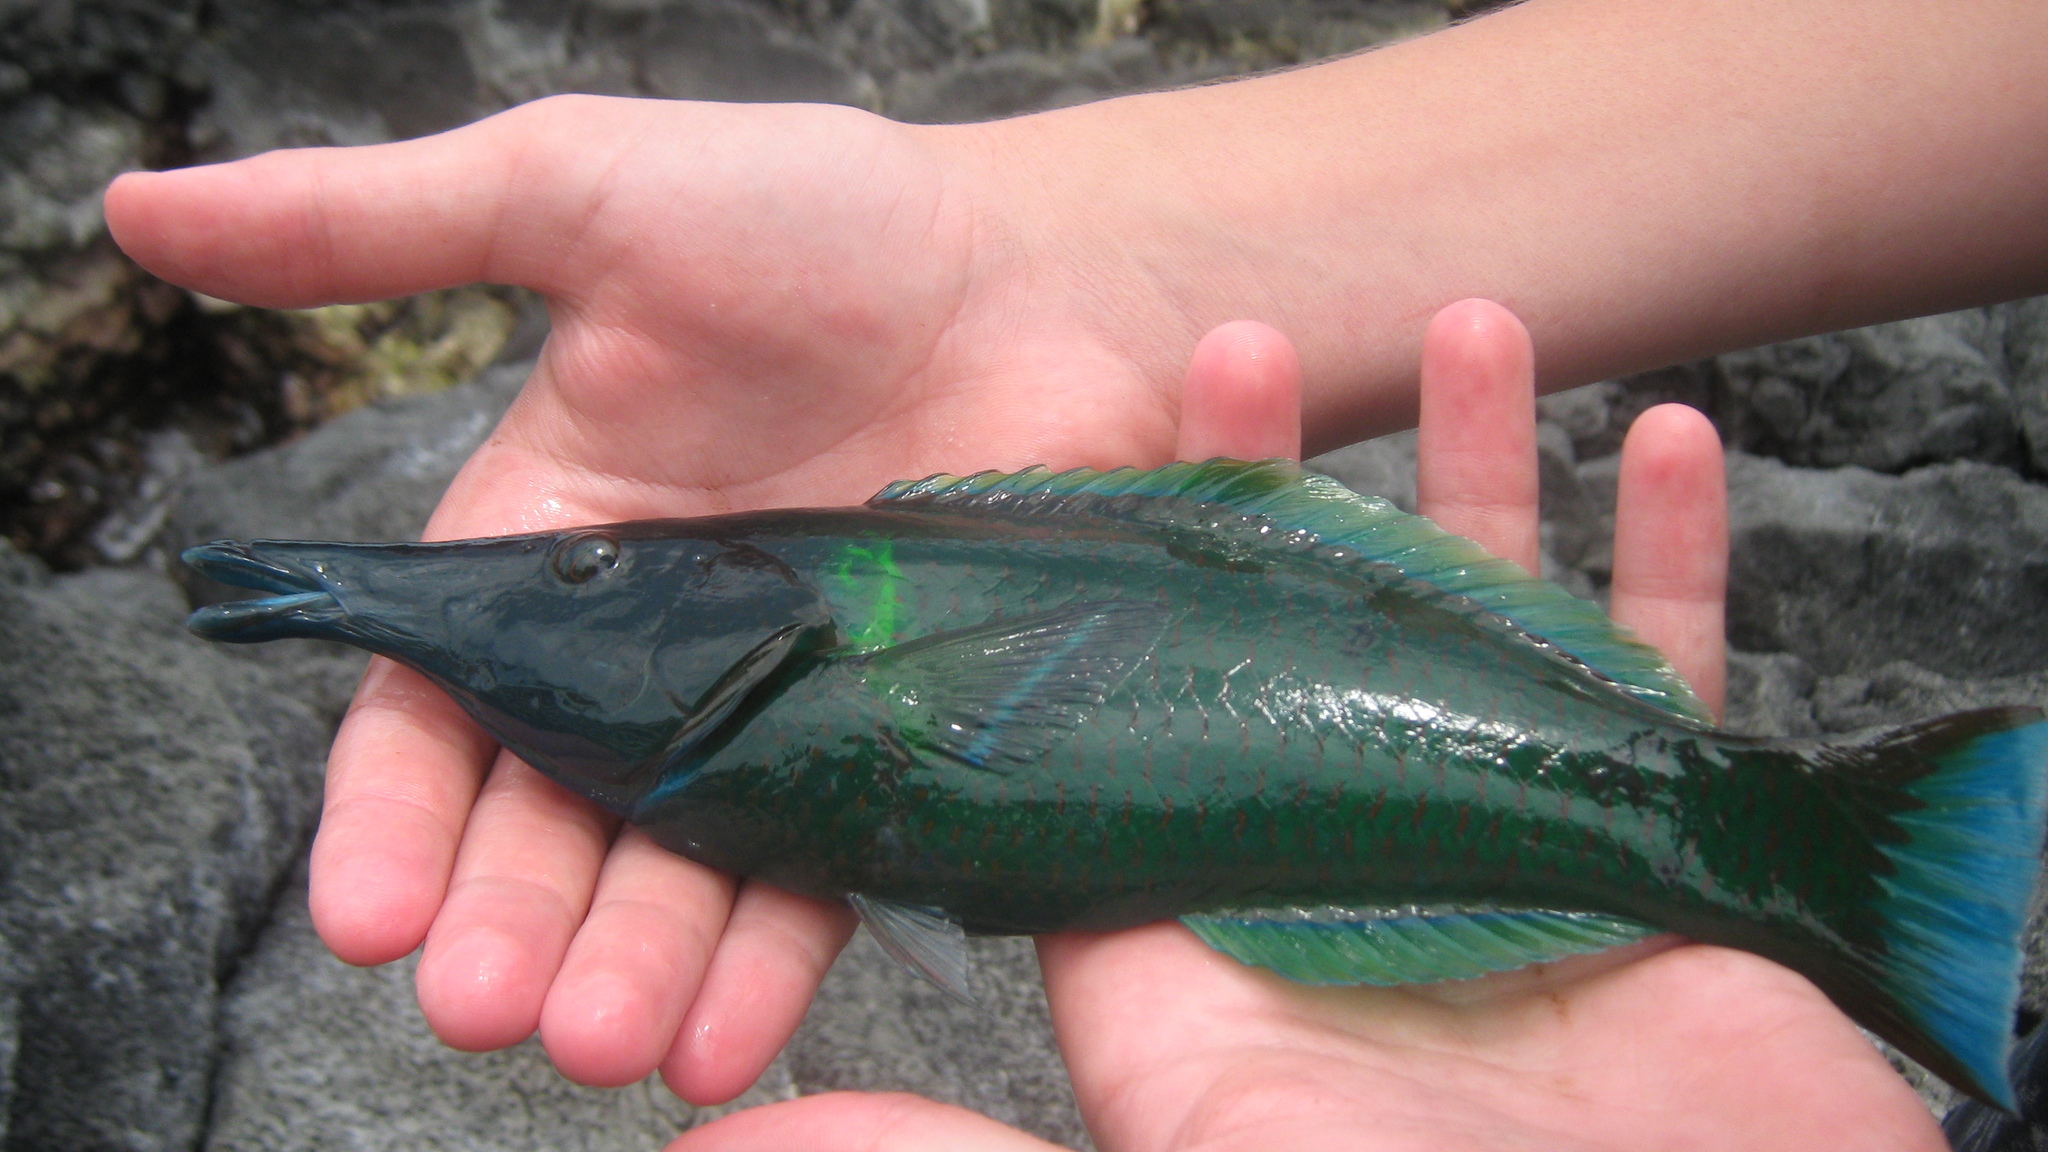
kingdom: Animalia
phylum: Chordata
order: Perciformes
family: Labridae
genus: Gomphosus
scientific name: Gomphosus varius
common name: Bird wrasse
